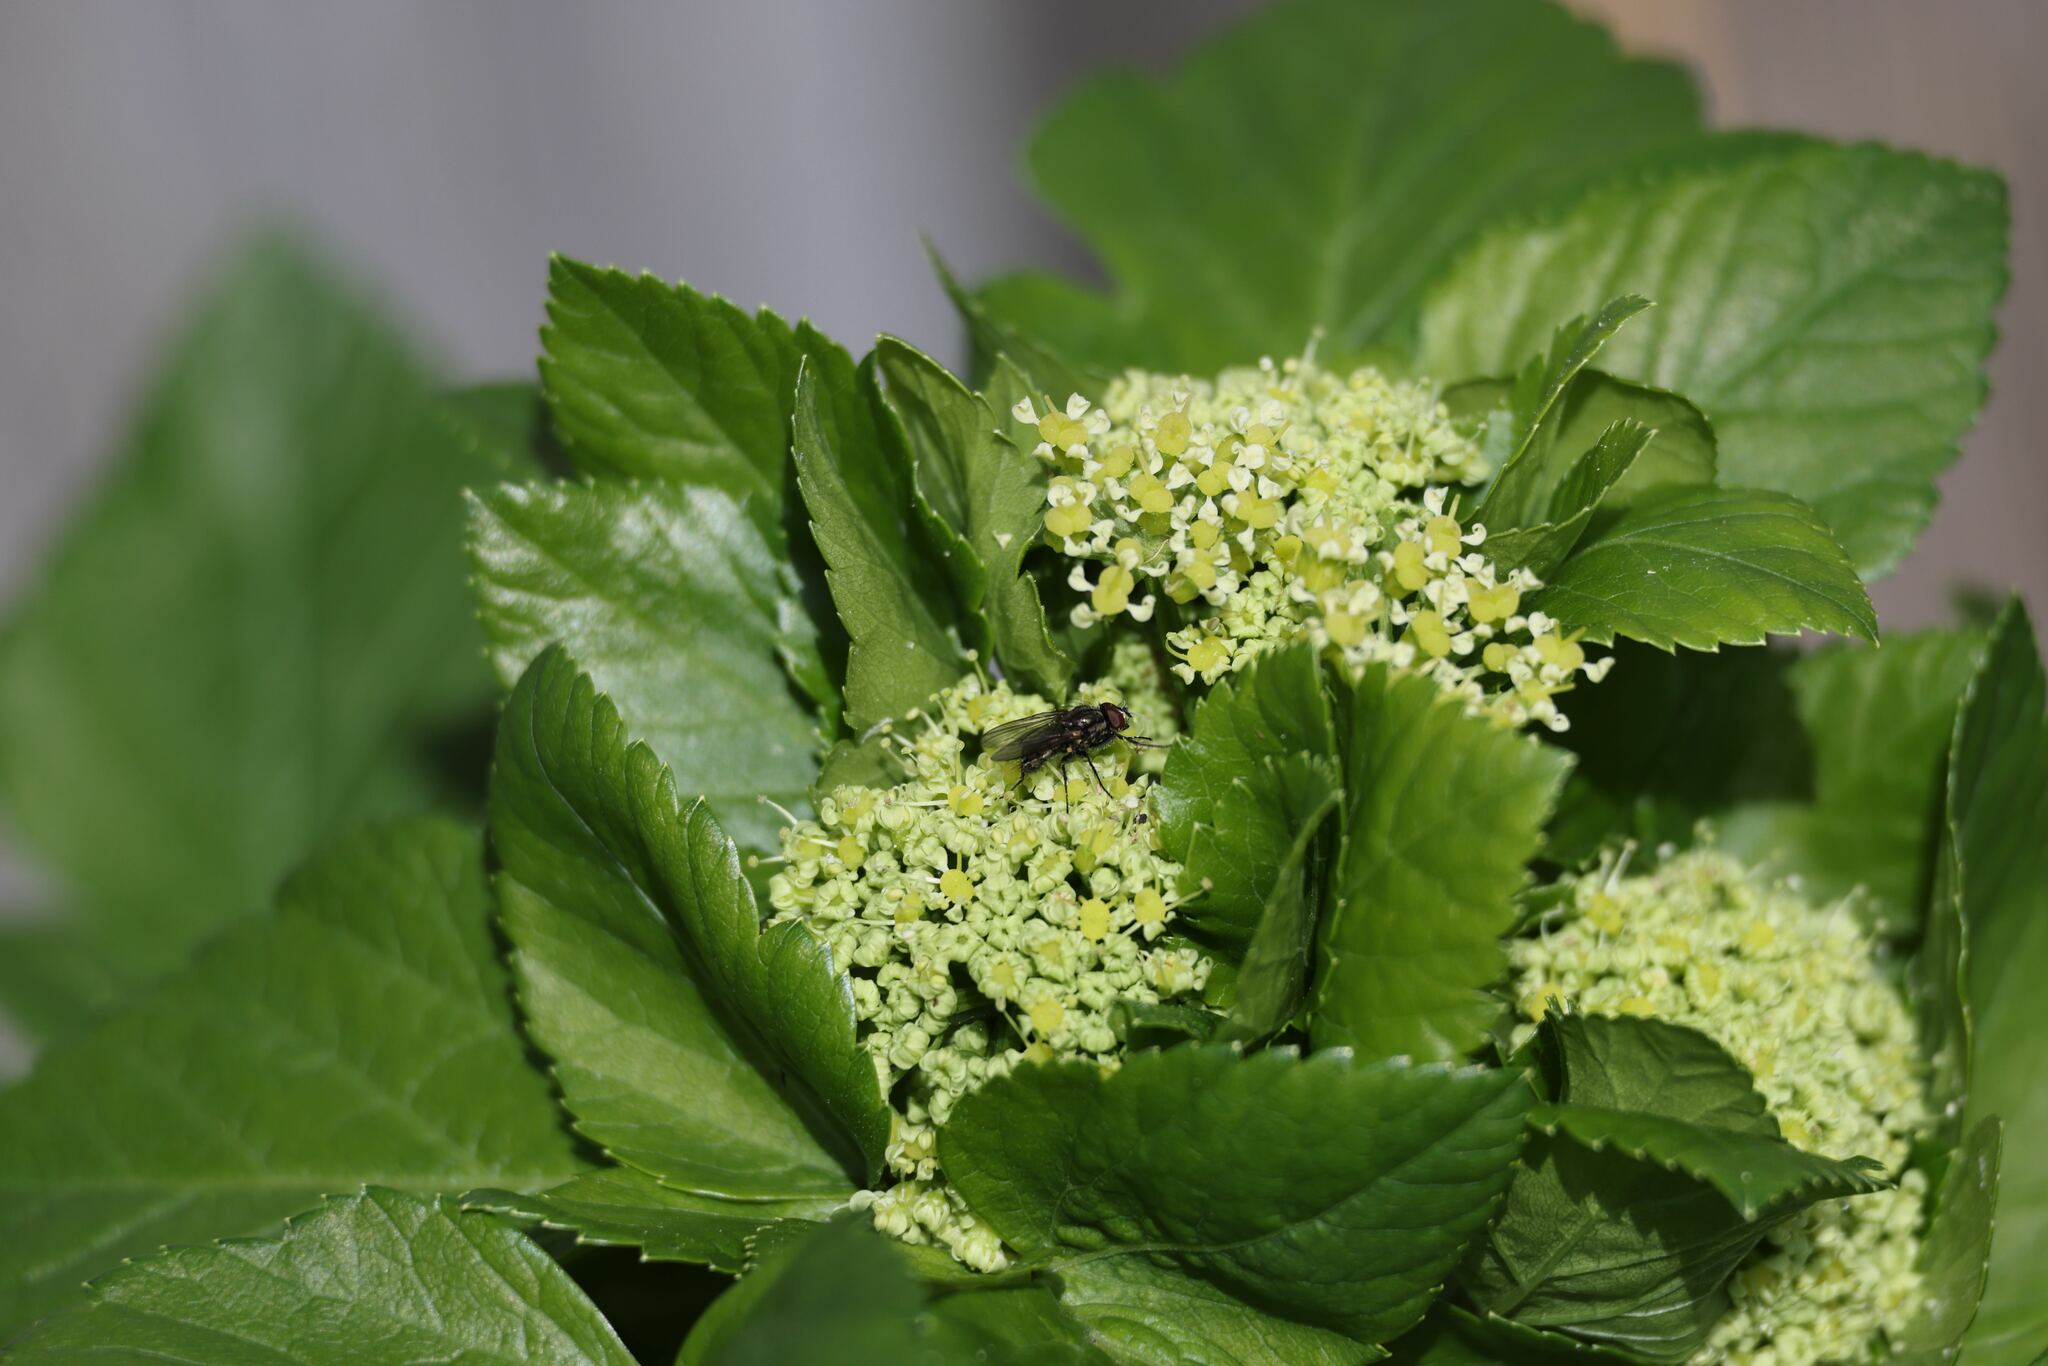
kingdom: Plantae
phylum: Tracheophyta
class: Magnoliopsida
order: Apiales
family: Apiaceae
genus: Smyrnium
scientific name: Smyrnium olusatrum
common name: Alexanders
